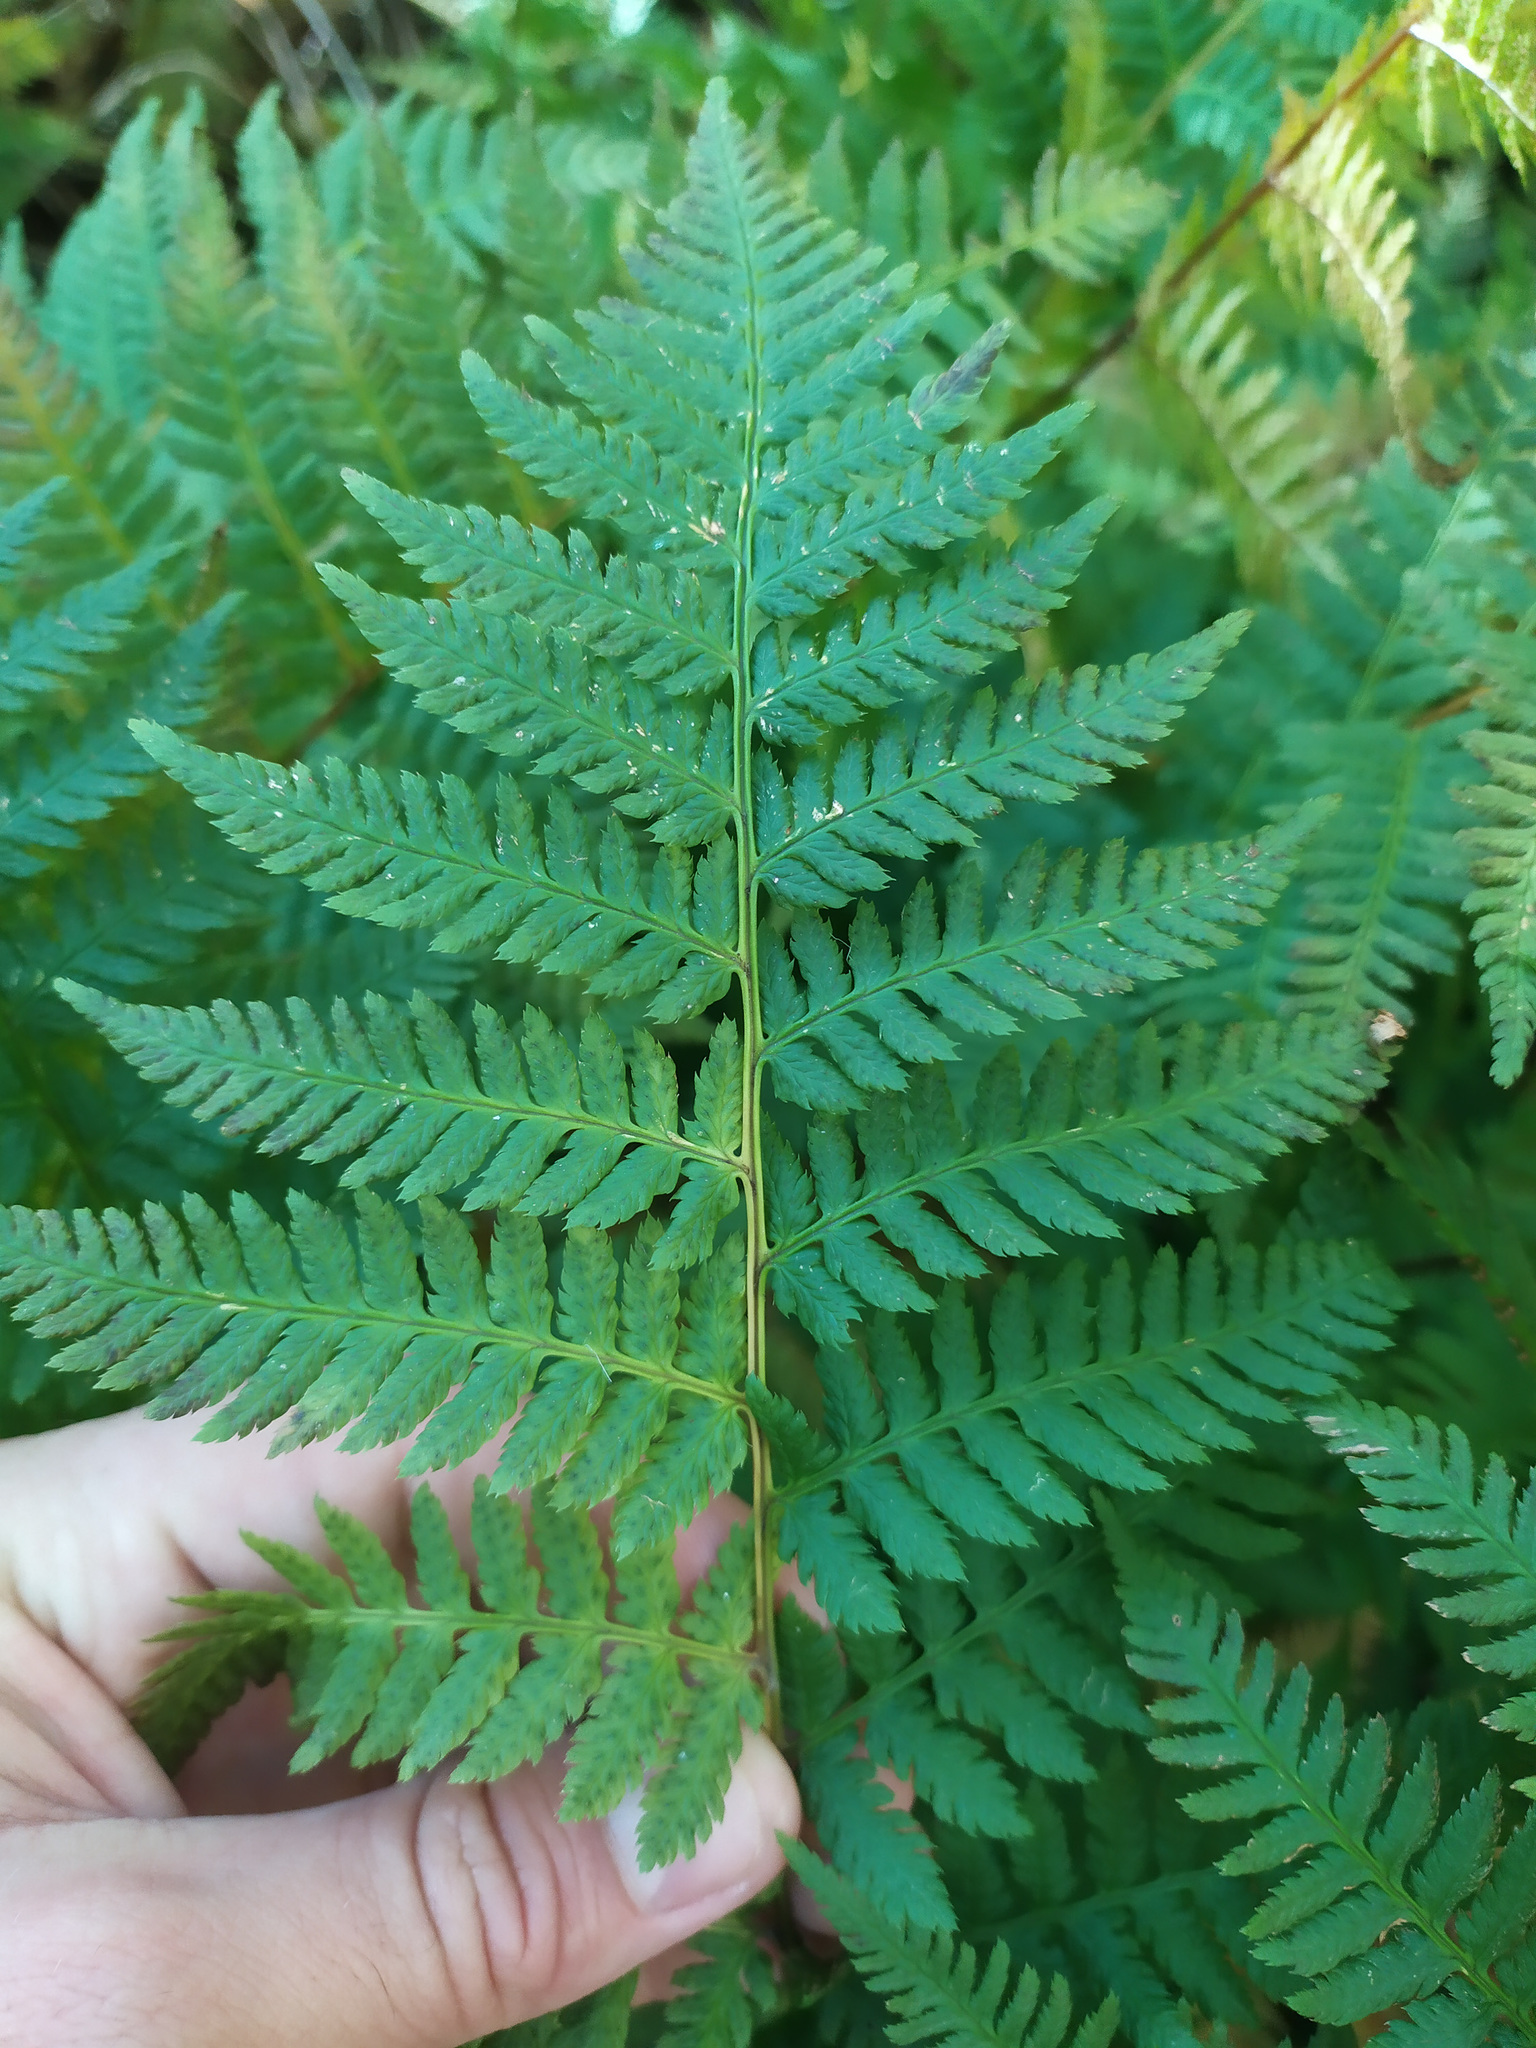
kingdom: Plantae
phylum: Tracheophyta
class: Polypodiopsida
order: Polypodiales
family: Dryopteridaceae
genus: Dryopteris
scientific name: Dryopteris carthusiana
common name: Narrow buckler-fern
